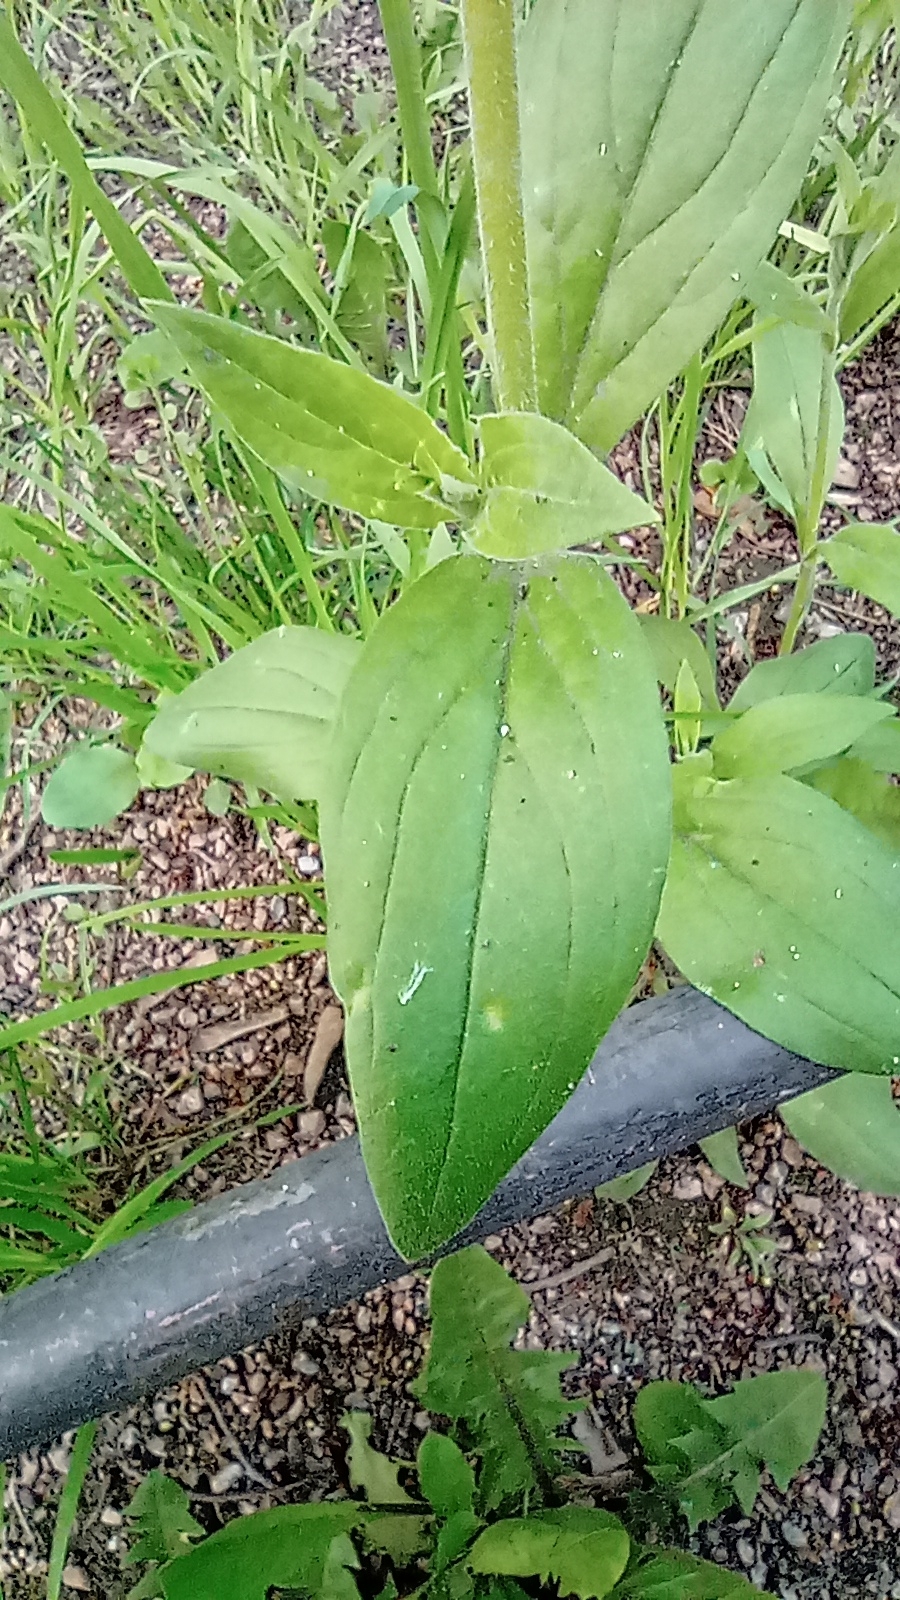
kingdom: Plantae
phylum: Tracheophyta
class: Magnoliopsida
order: Caryophyllales
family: Caryophyllaceae
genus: Silene
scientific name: Silene latifolia
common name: White campion
